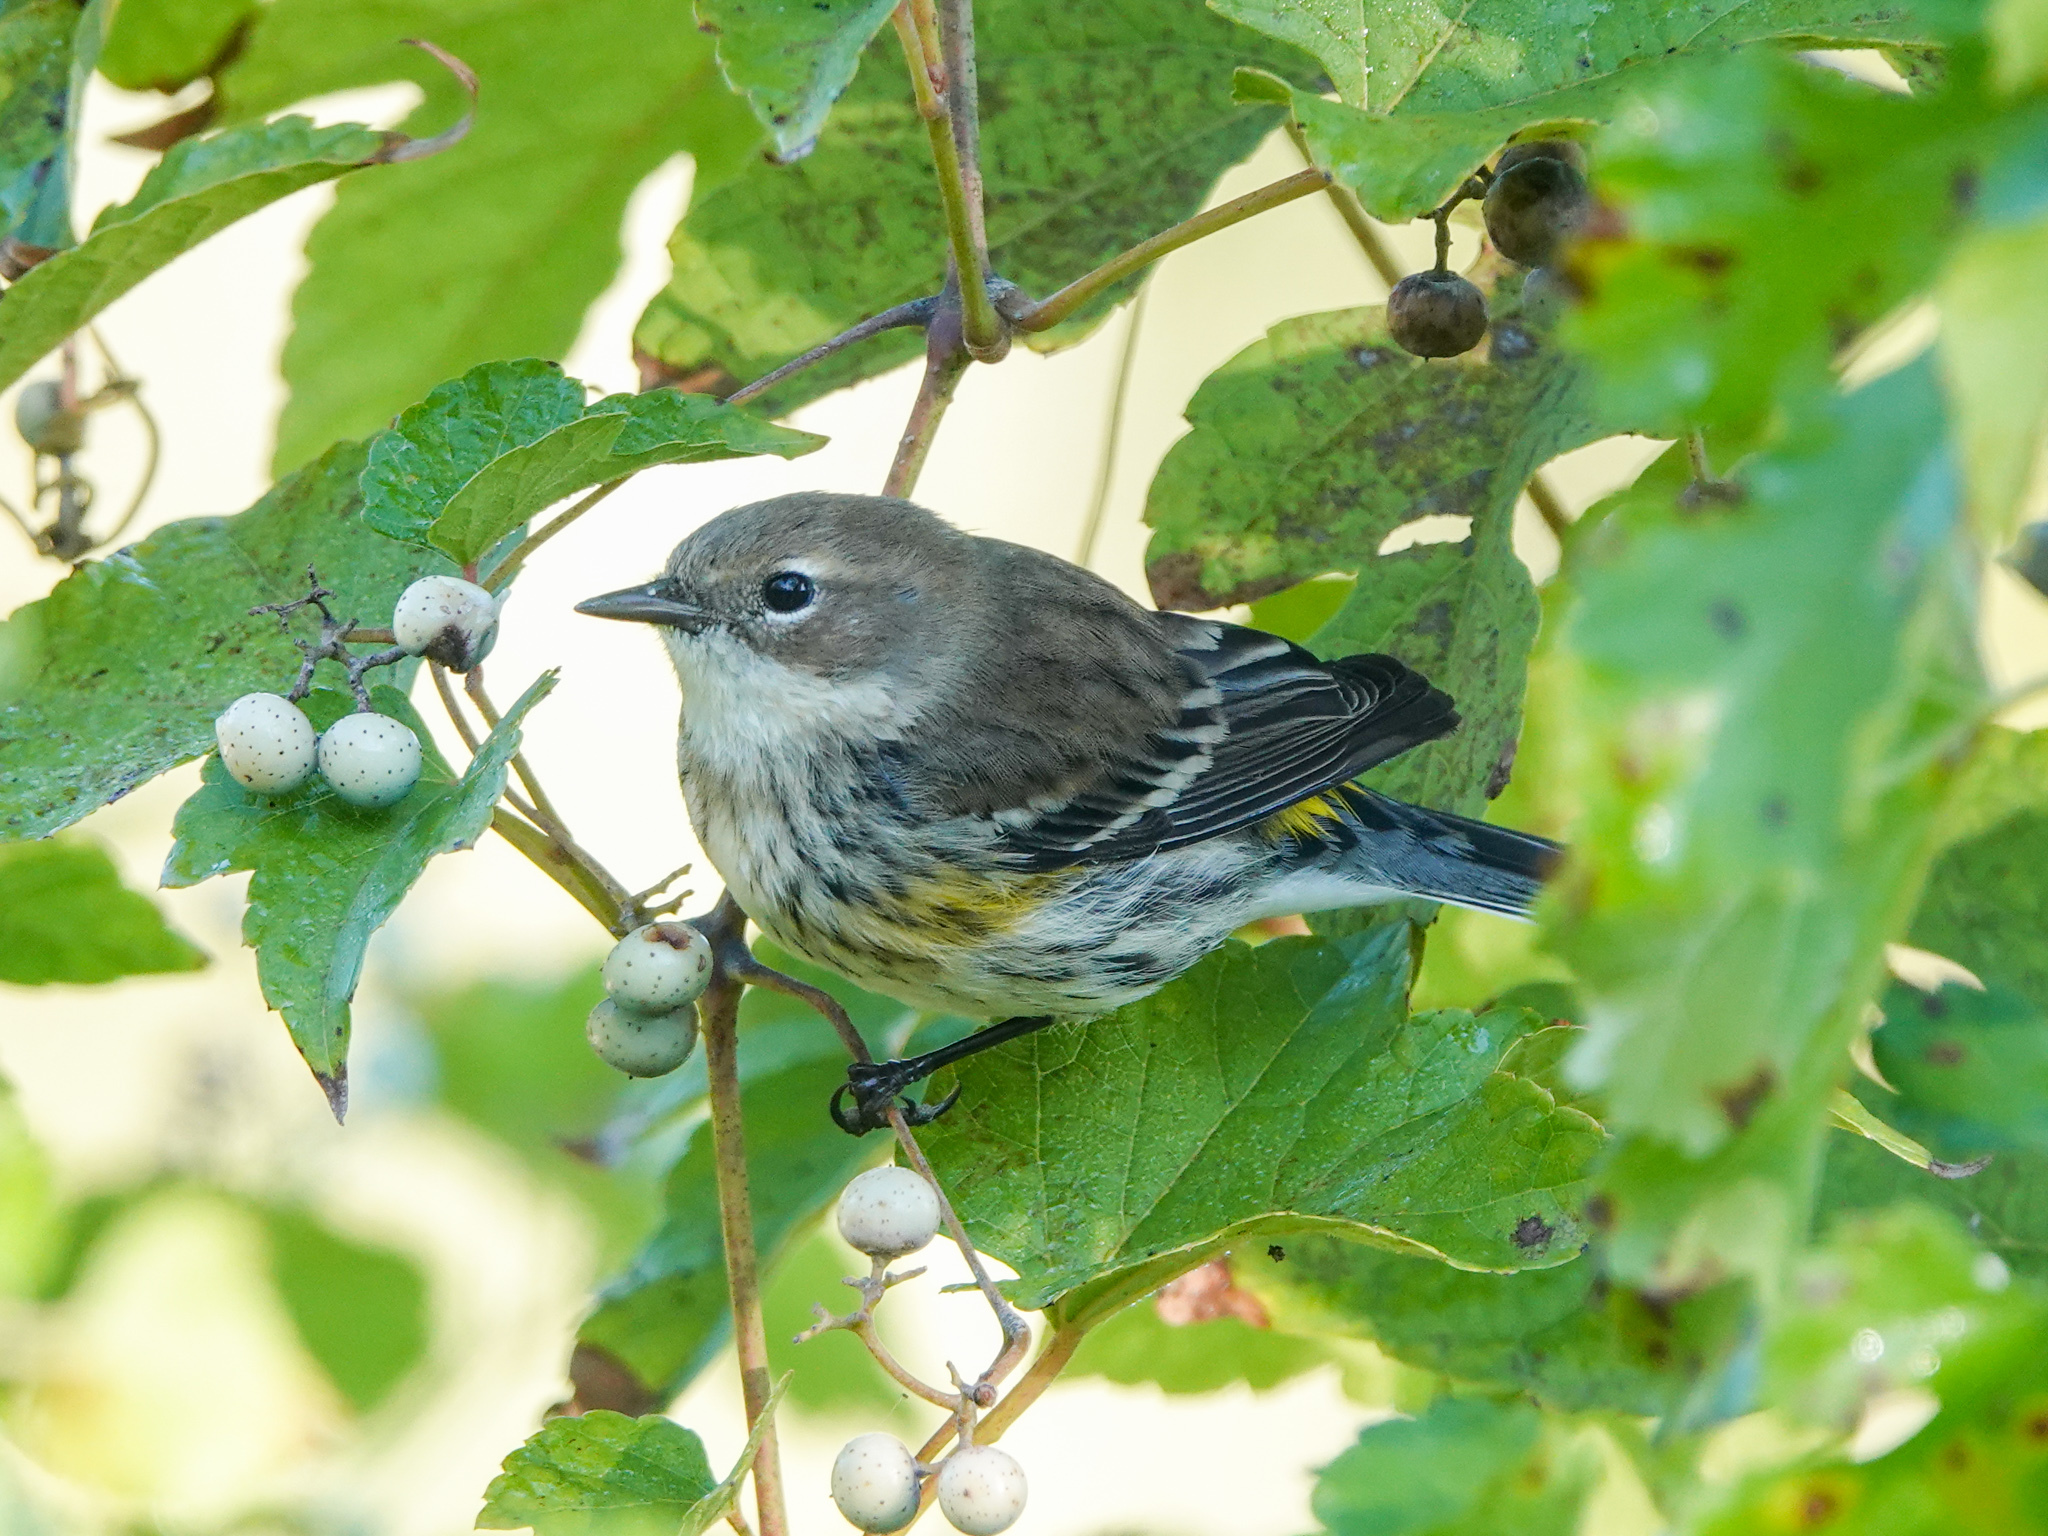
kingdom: Animalia
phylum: Chordata
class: Aves
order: Passeriformes
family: Parulidae
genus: Setophaga
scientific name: Setophaga coronata
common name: Myrtle warbler
